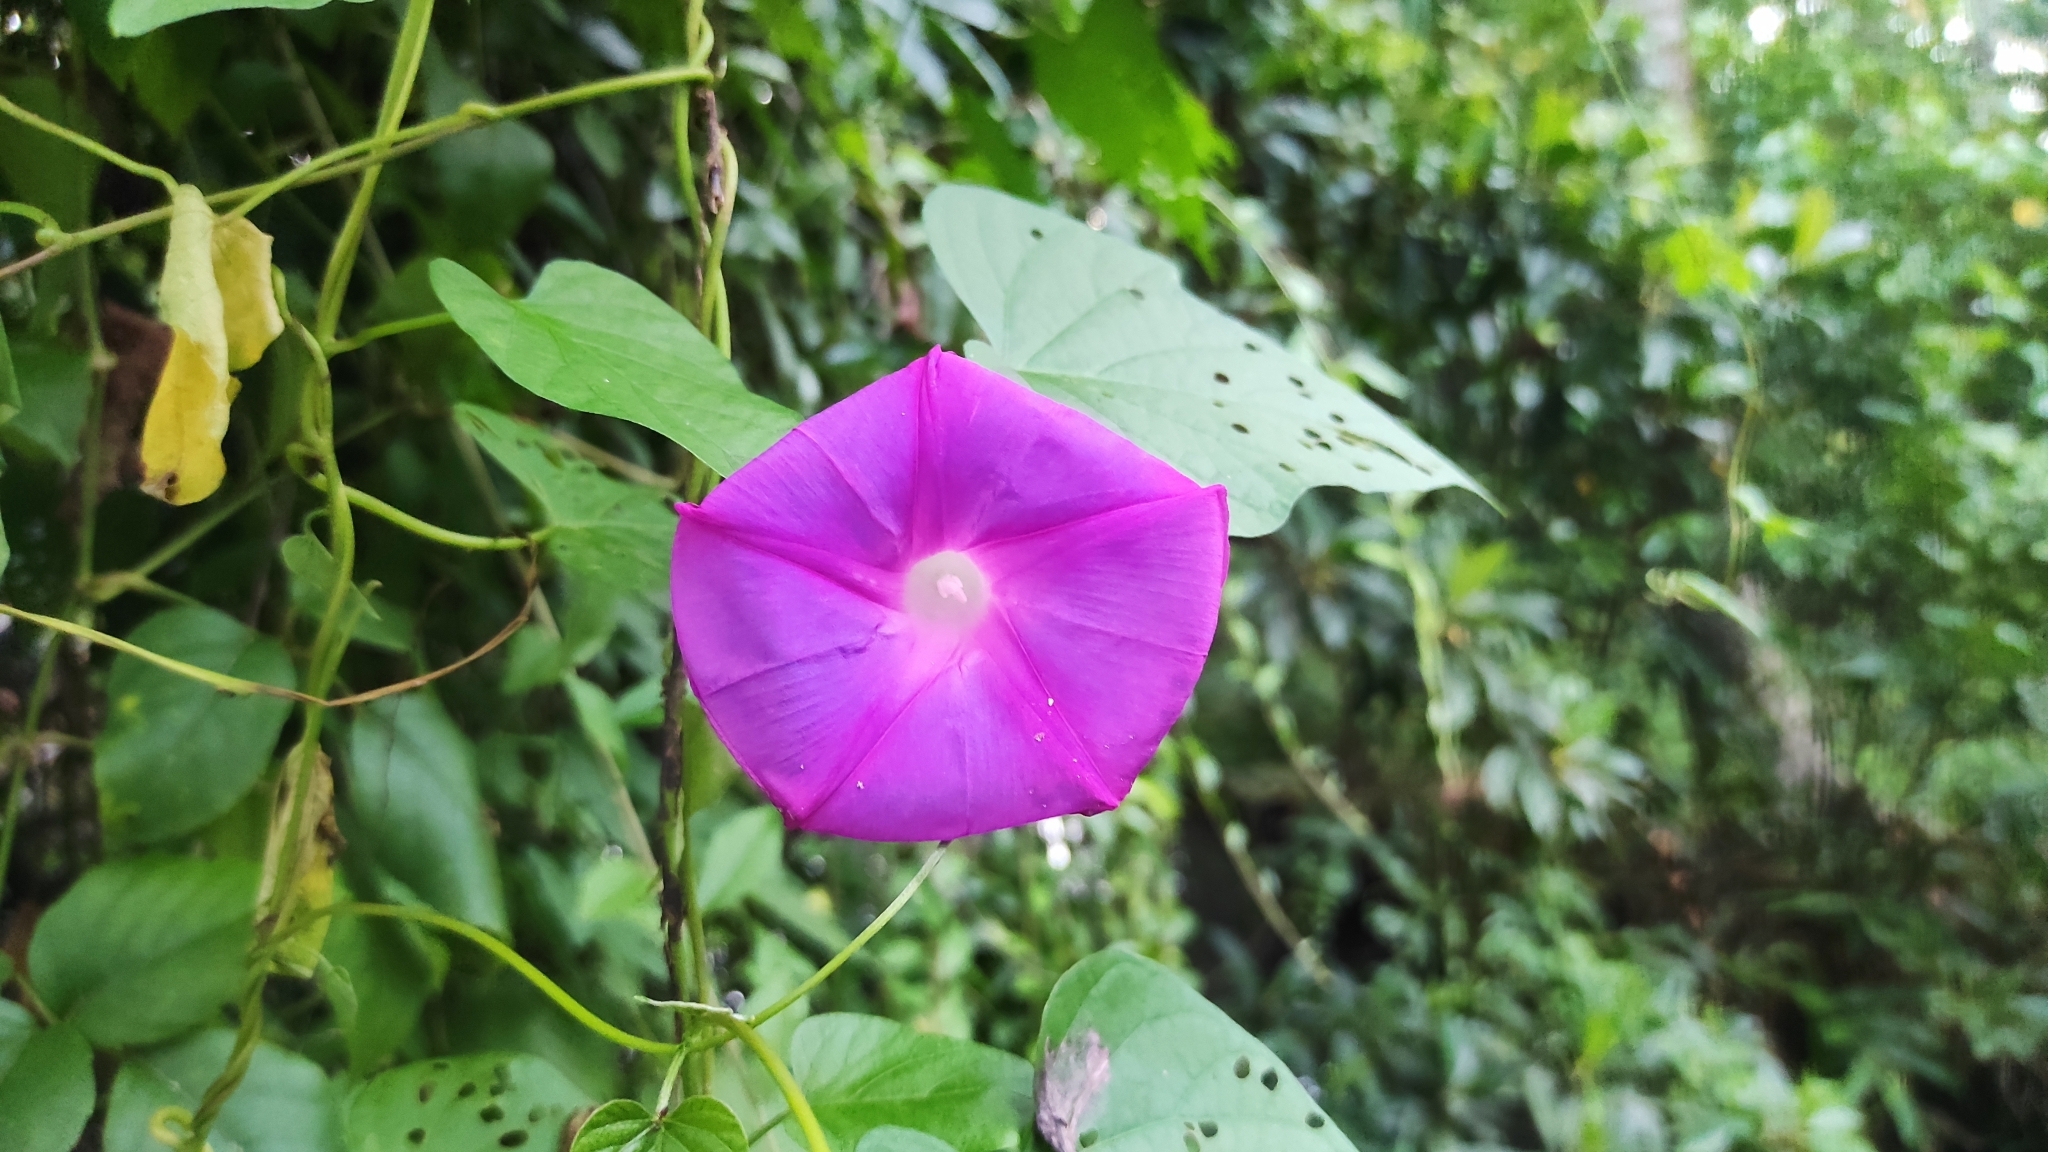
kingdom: Plantae
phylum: Tracheophyta
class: Magnoliopsida
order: Solanales
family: Convolvulaceae
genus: Ipomoea
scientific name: Ipomoea indica
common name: Blue dawnflower
